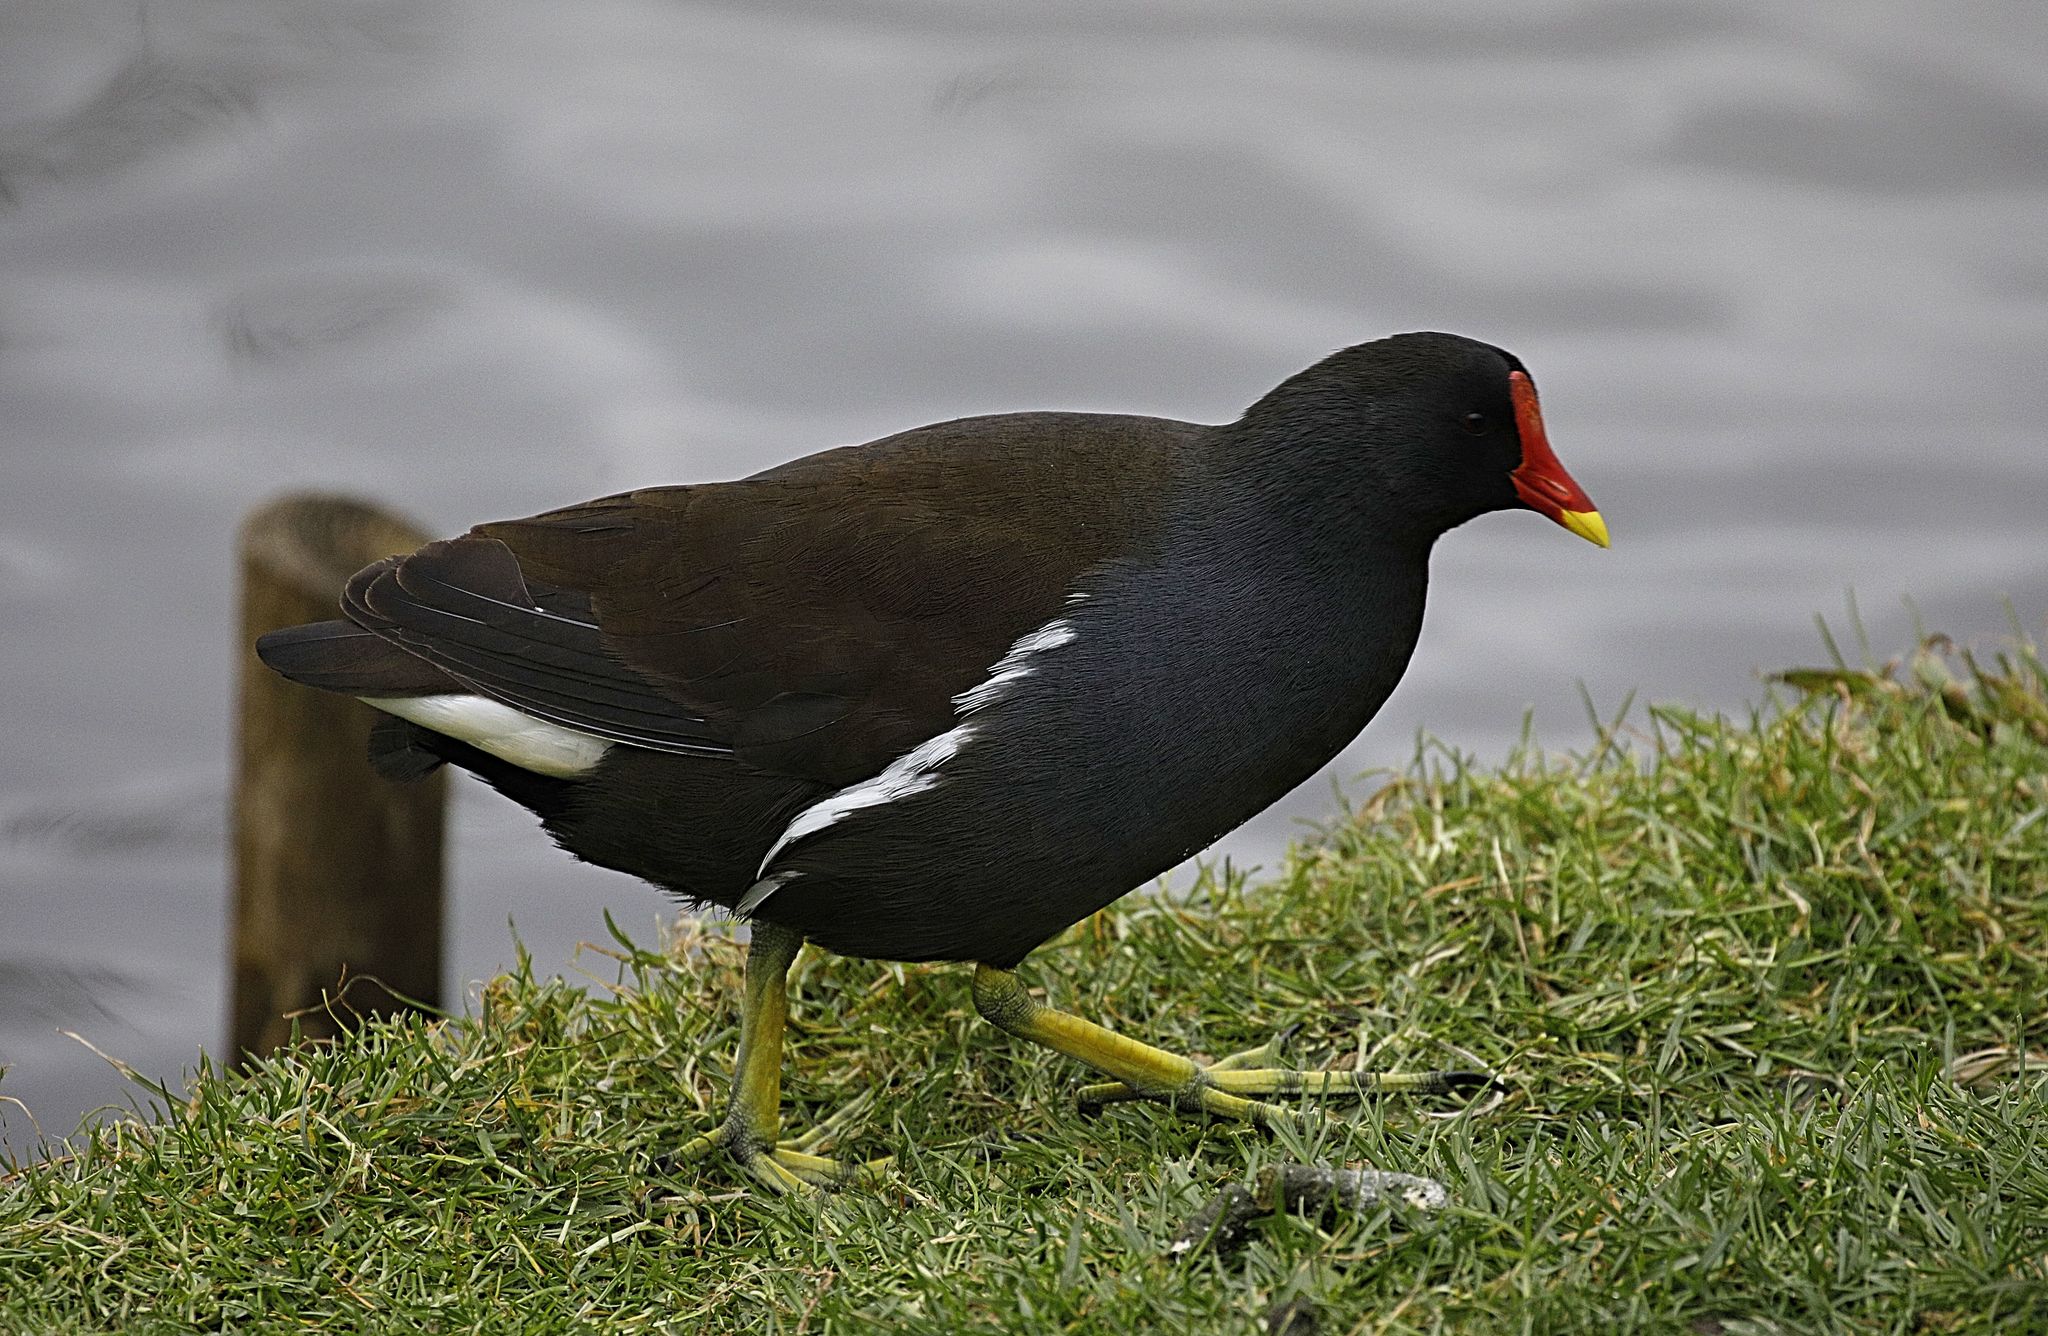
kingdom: Animalia
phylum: Chordata
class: Aves
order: Gruiformes
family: Rallidae
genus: Gallinula
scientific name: Gallinula chloropus
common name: Common moorhen
